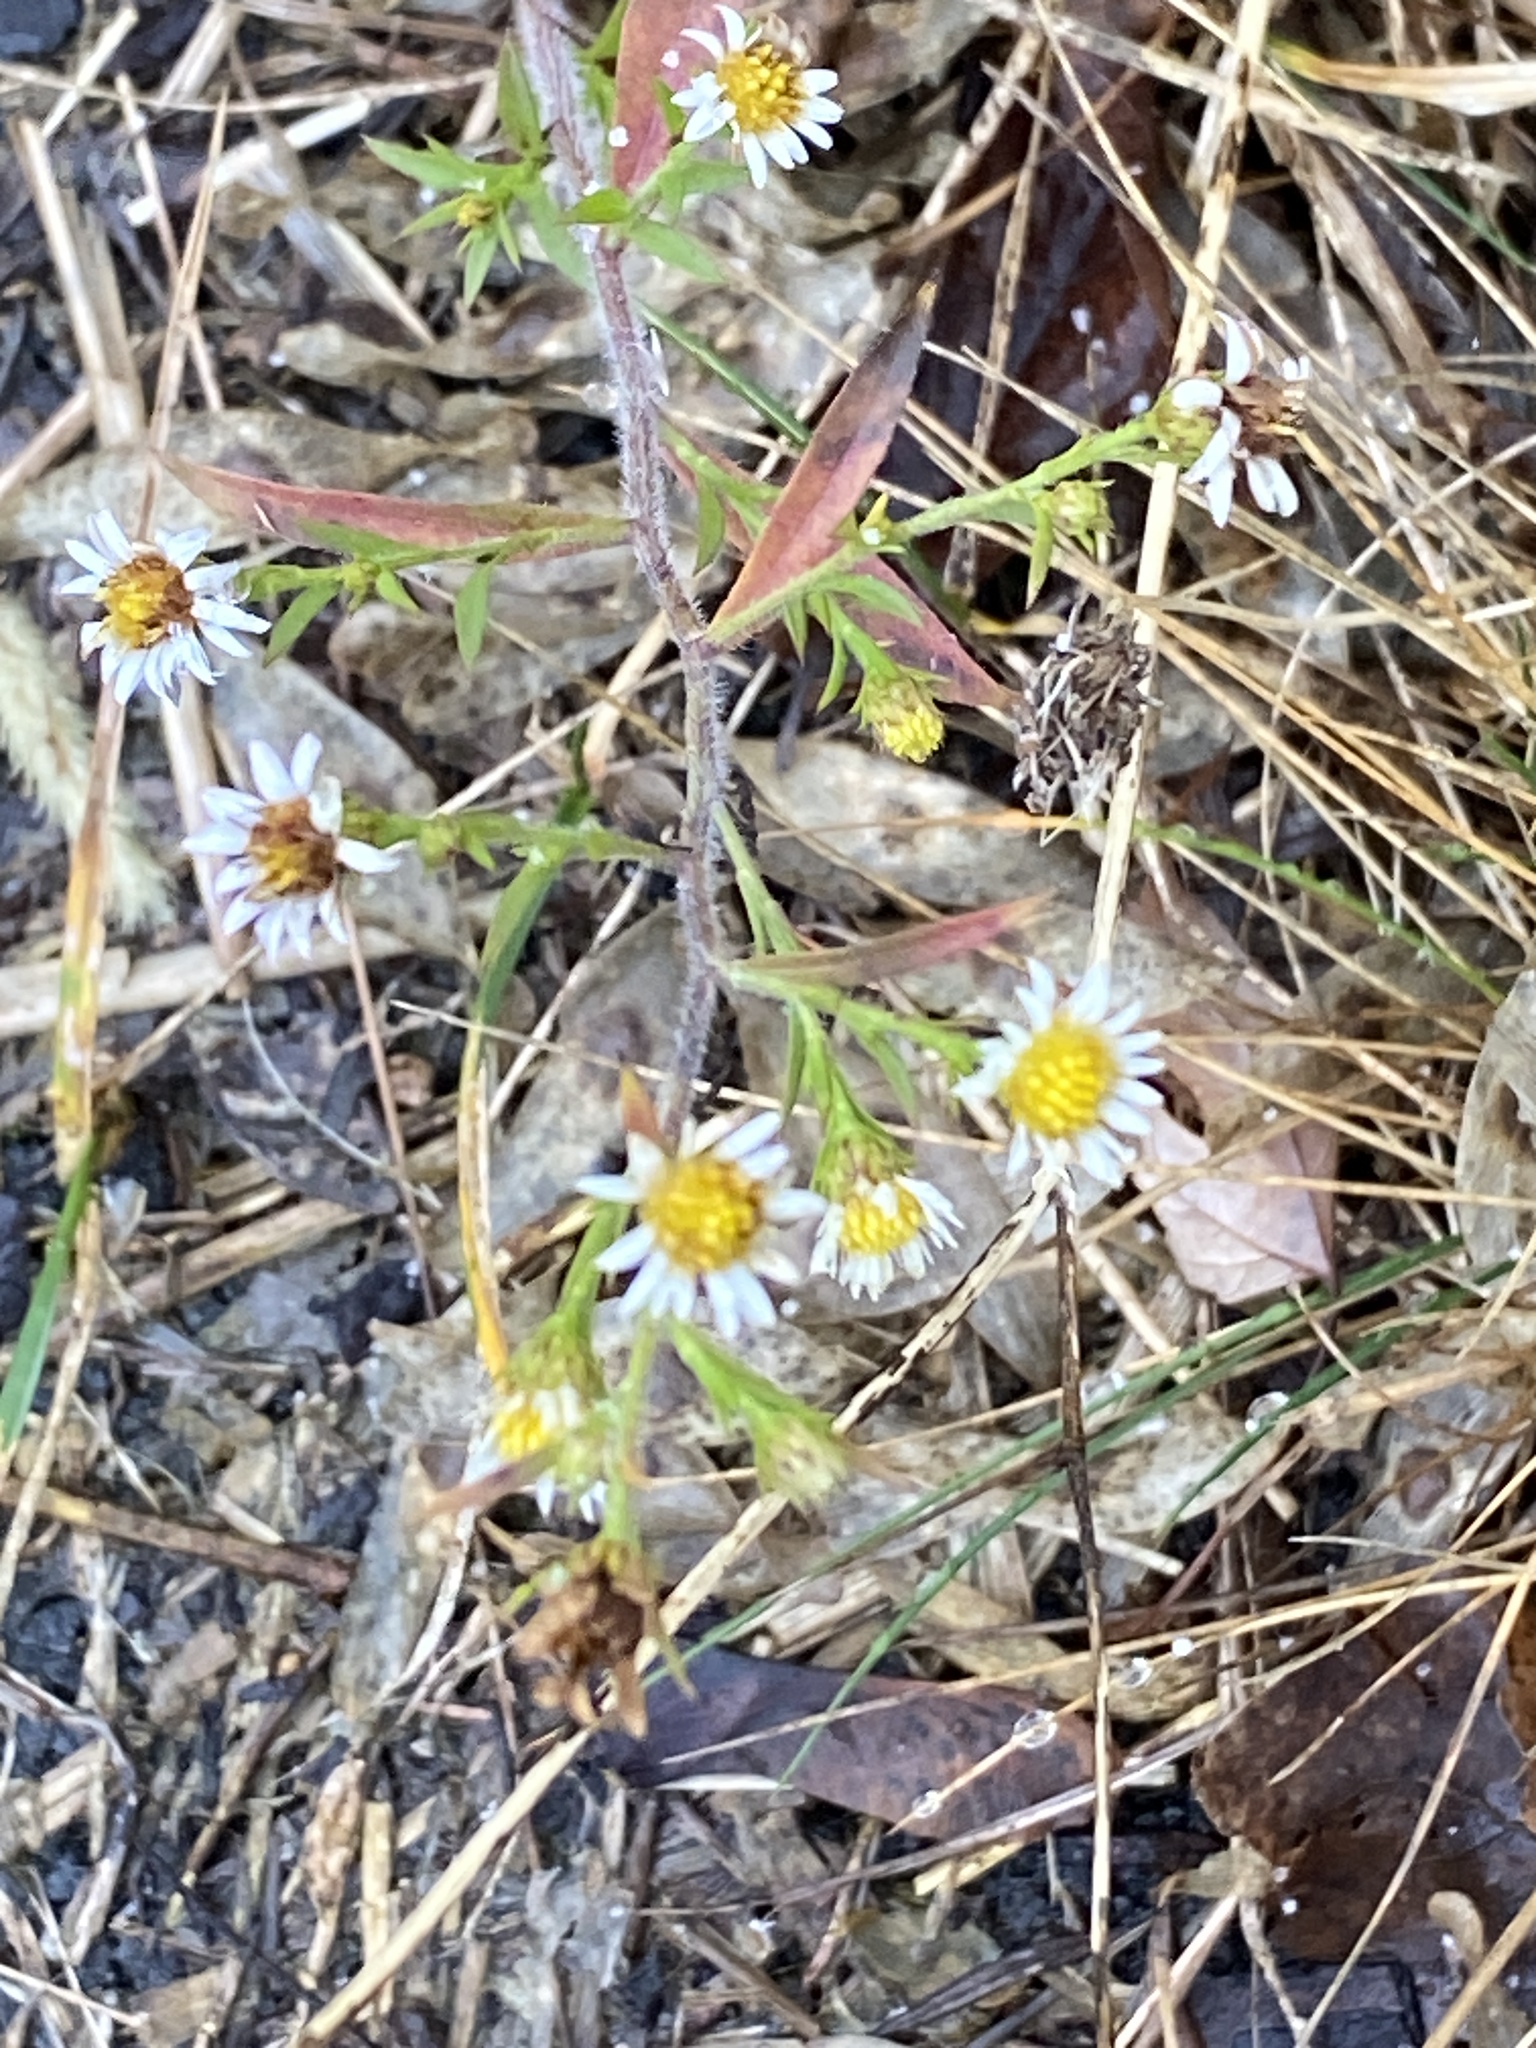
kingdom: Plantae
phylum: Tracheophyta
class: Magnoliopsida
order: Asterales
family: Asteraceae
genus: Symphyotrichum
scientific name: Symphyotrichum pilosum
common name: Awl aster
